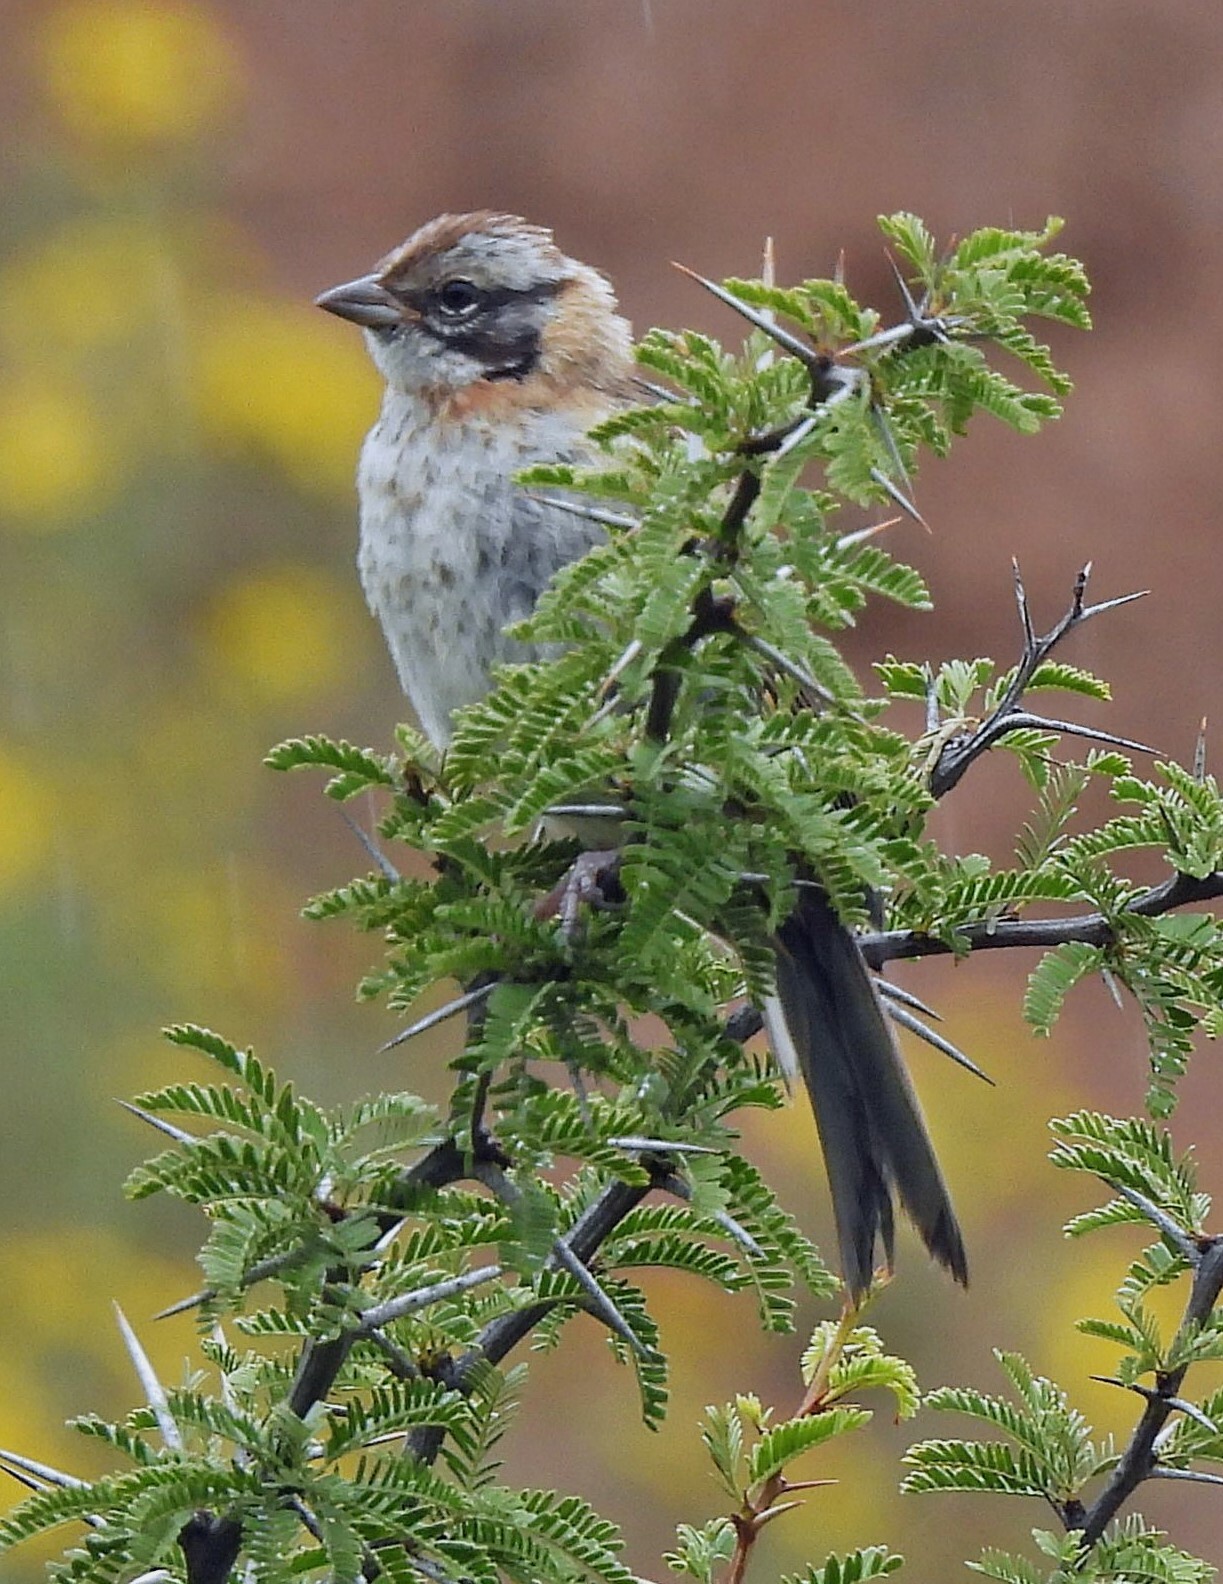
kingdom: Animalia
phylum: Chordata
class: Aves
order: Passeriformes
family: Passerellidae
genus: Zonotrichia
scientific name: Zonotrichia capensis
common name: Rufous-collared sparrow
